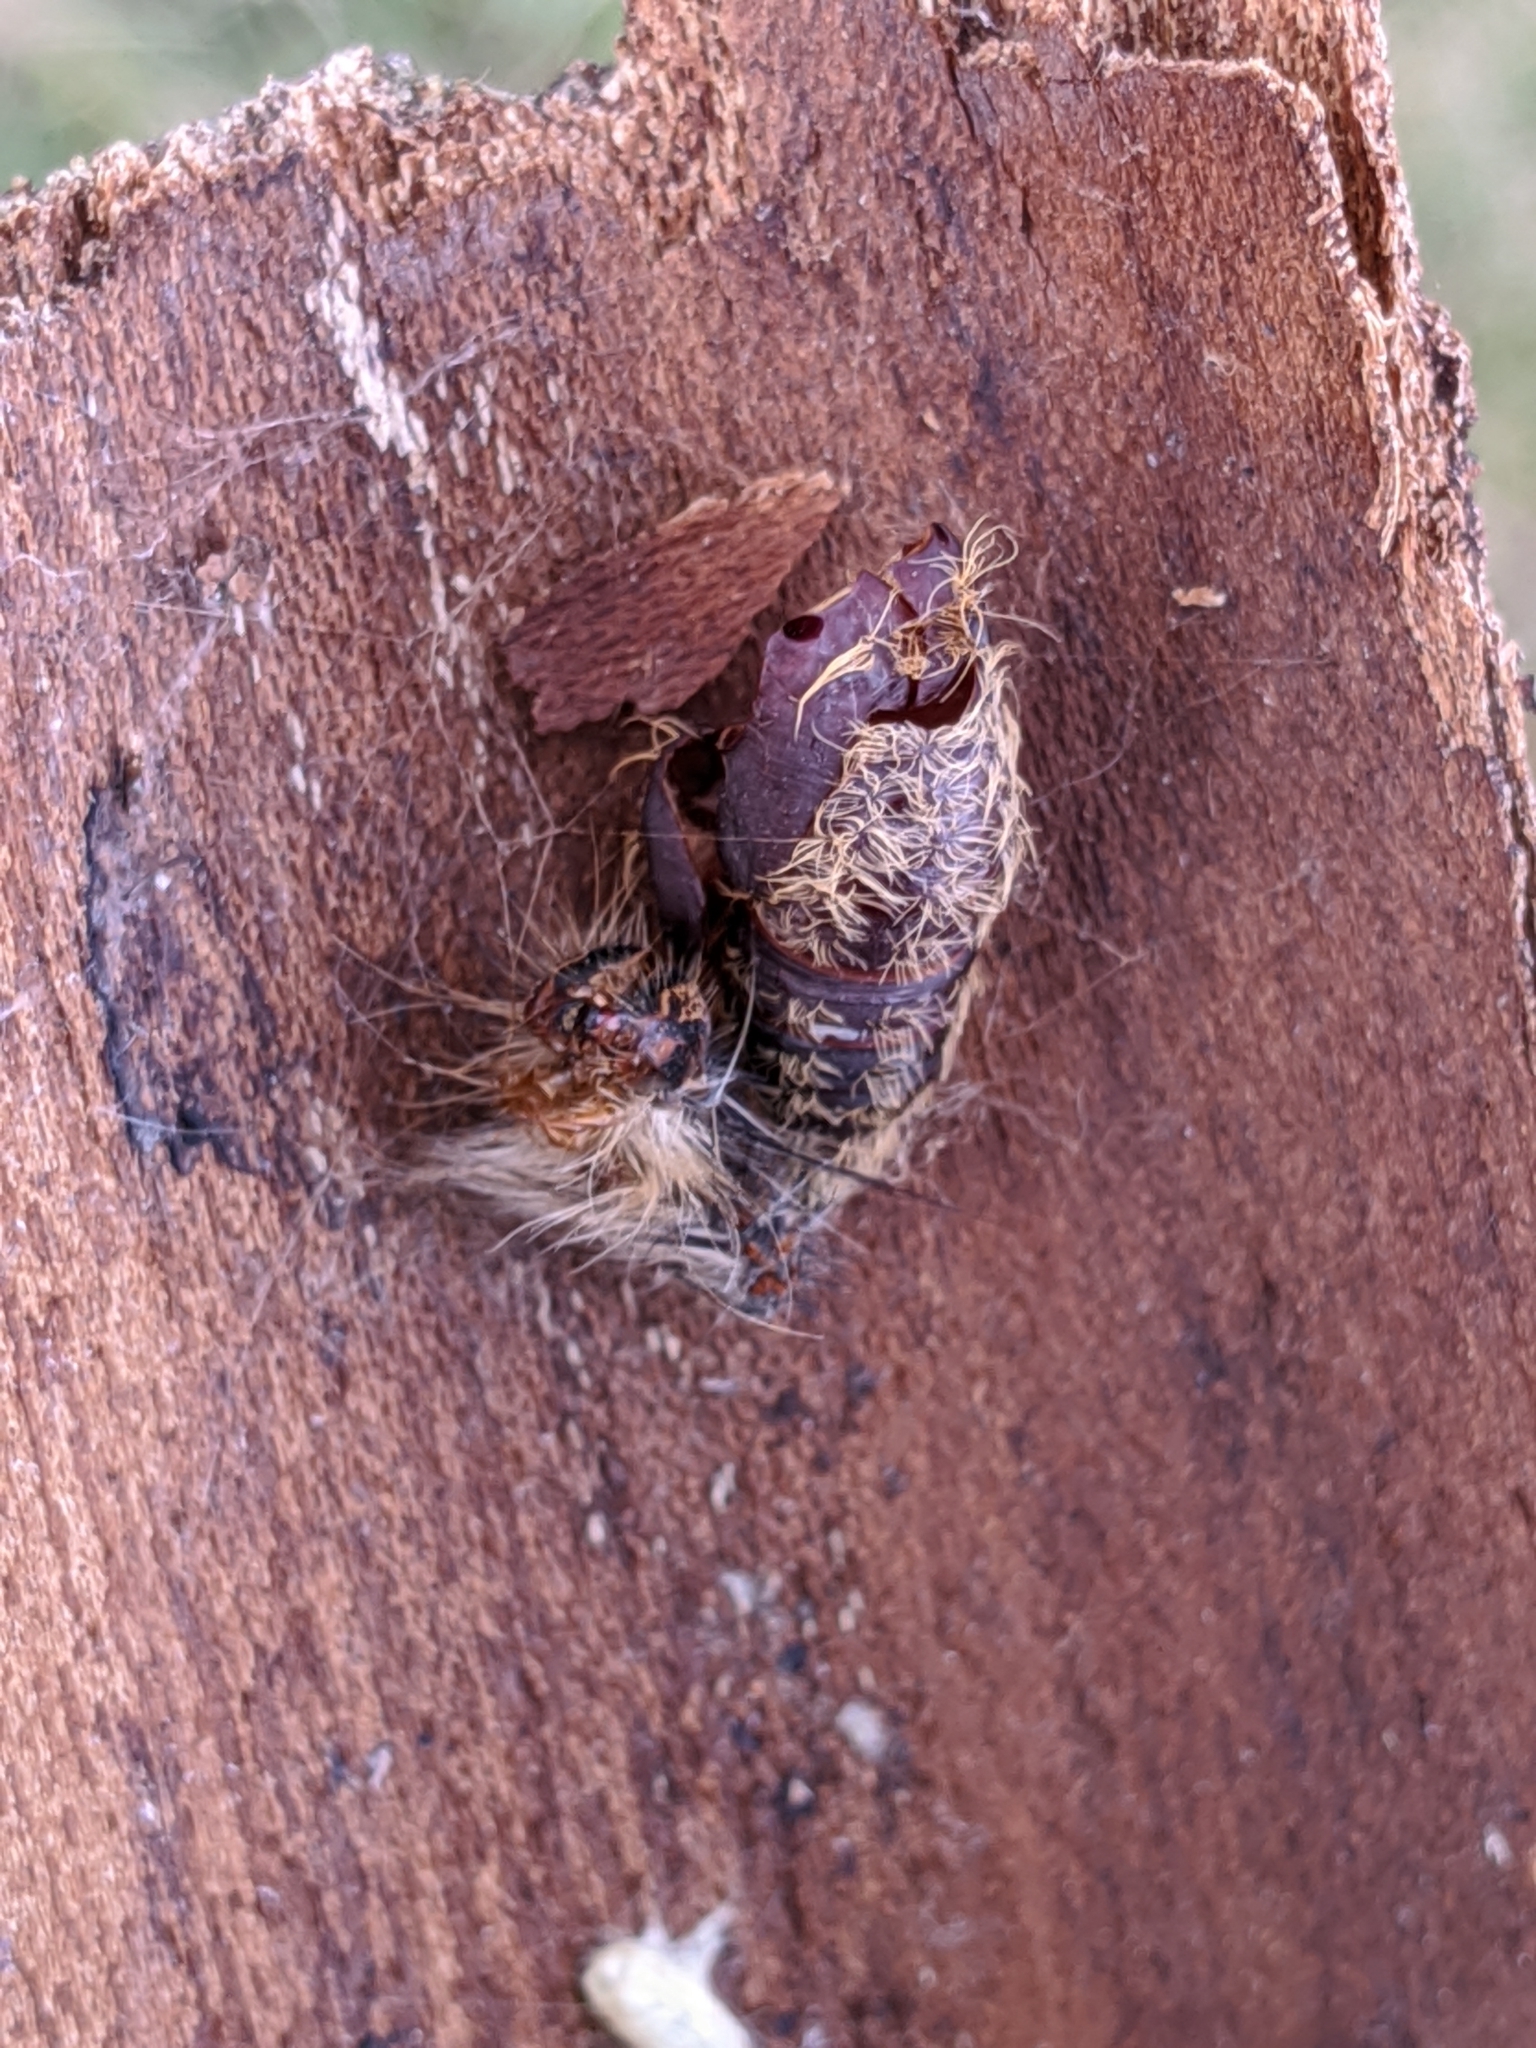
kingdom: Animalia
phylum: Arthropoda
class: Insecta
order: Lepidoptera
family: Erebidae
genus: Lymantria
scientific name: Lymantria dispar
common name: Gypsy moth
